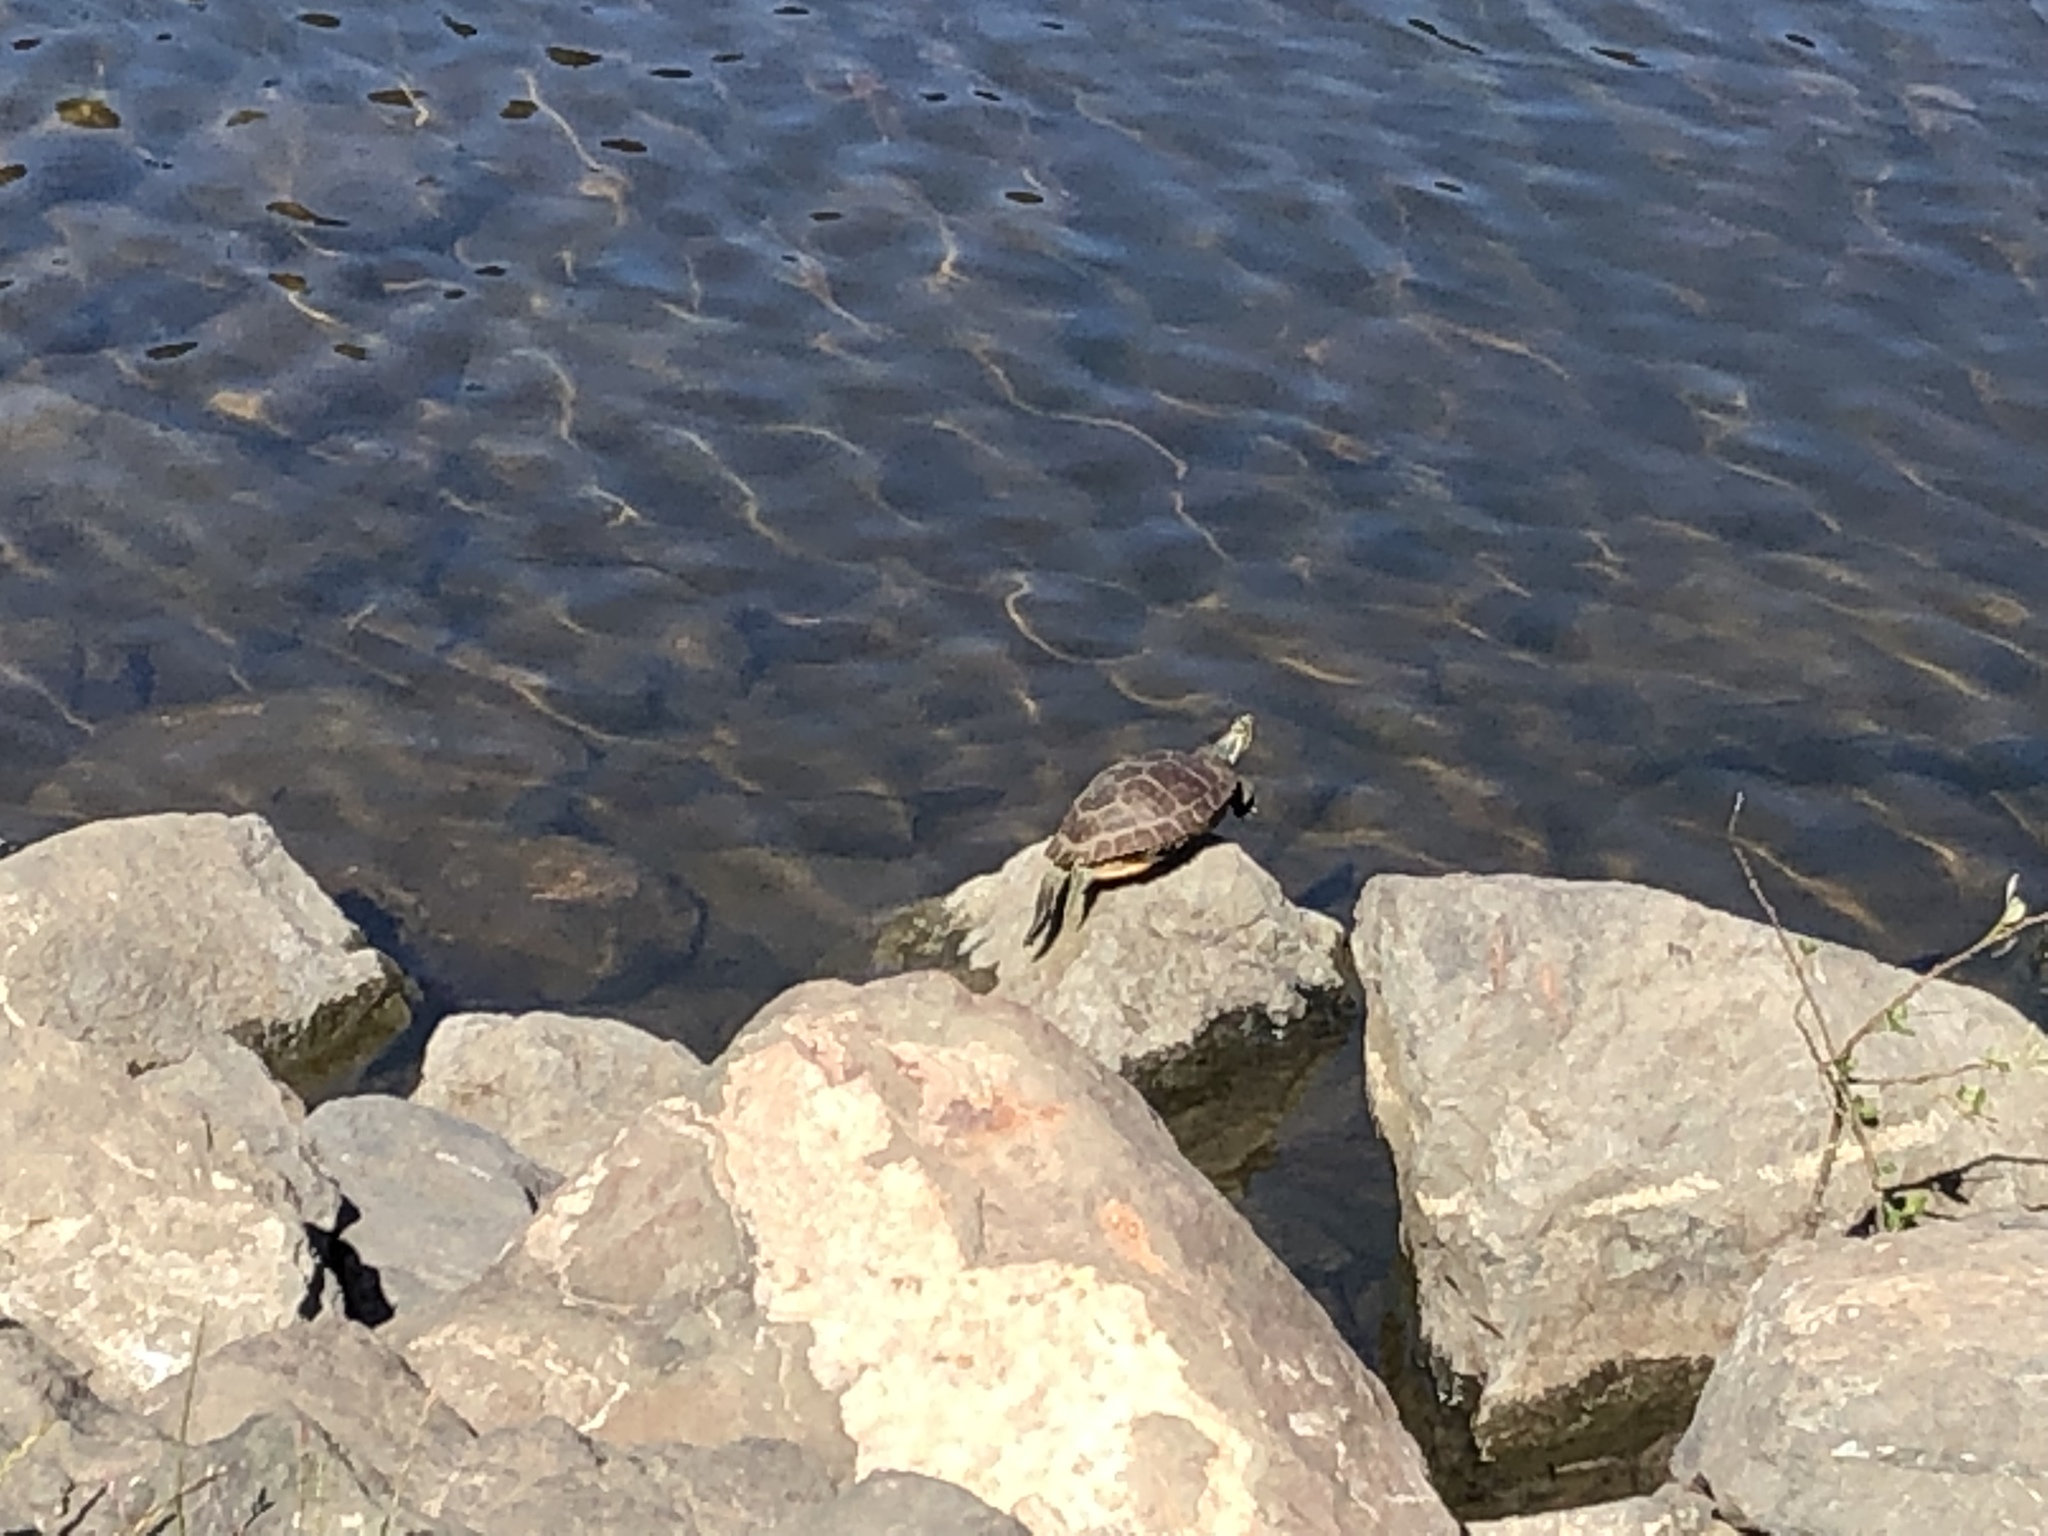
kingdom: Animalia
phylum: Chordata
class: Testudines
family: Emydidae
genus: Trachemys
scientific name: Trachemys scripta
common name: Slider
